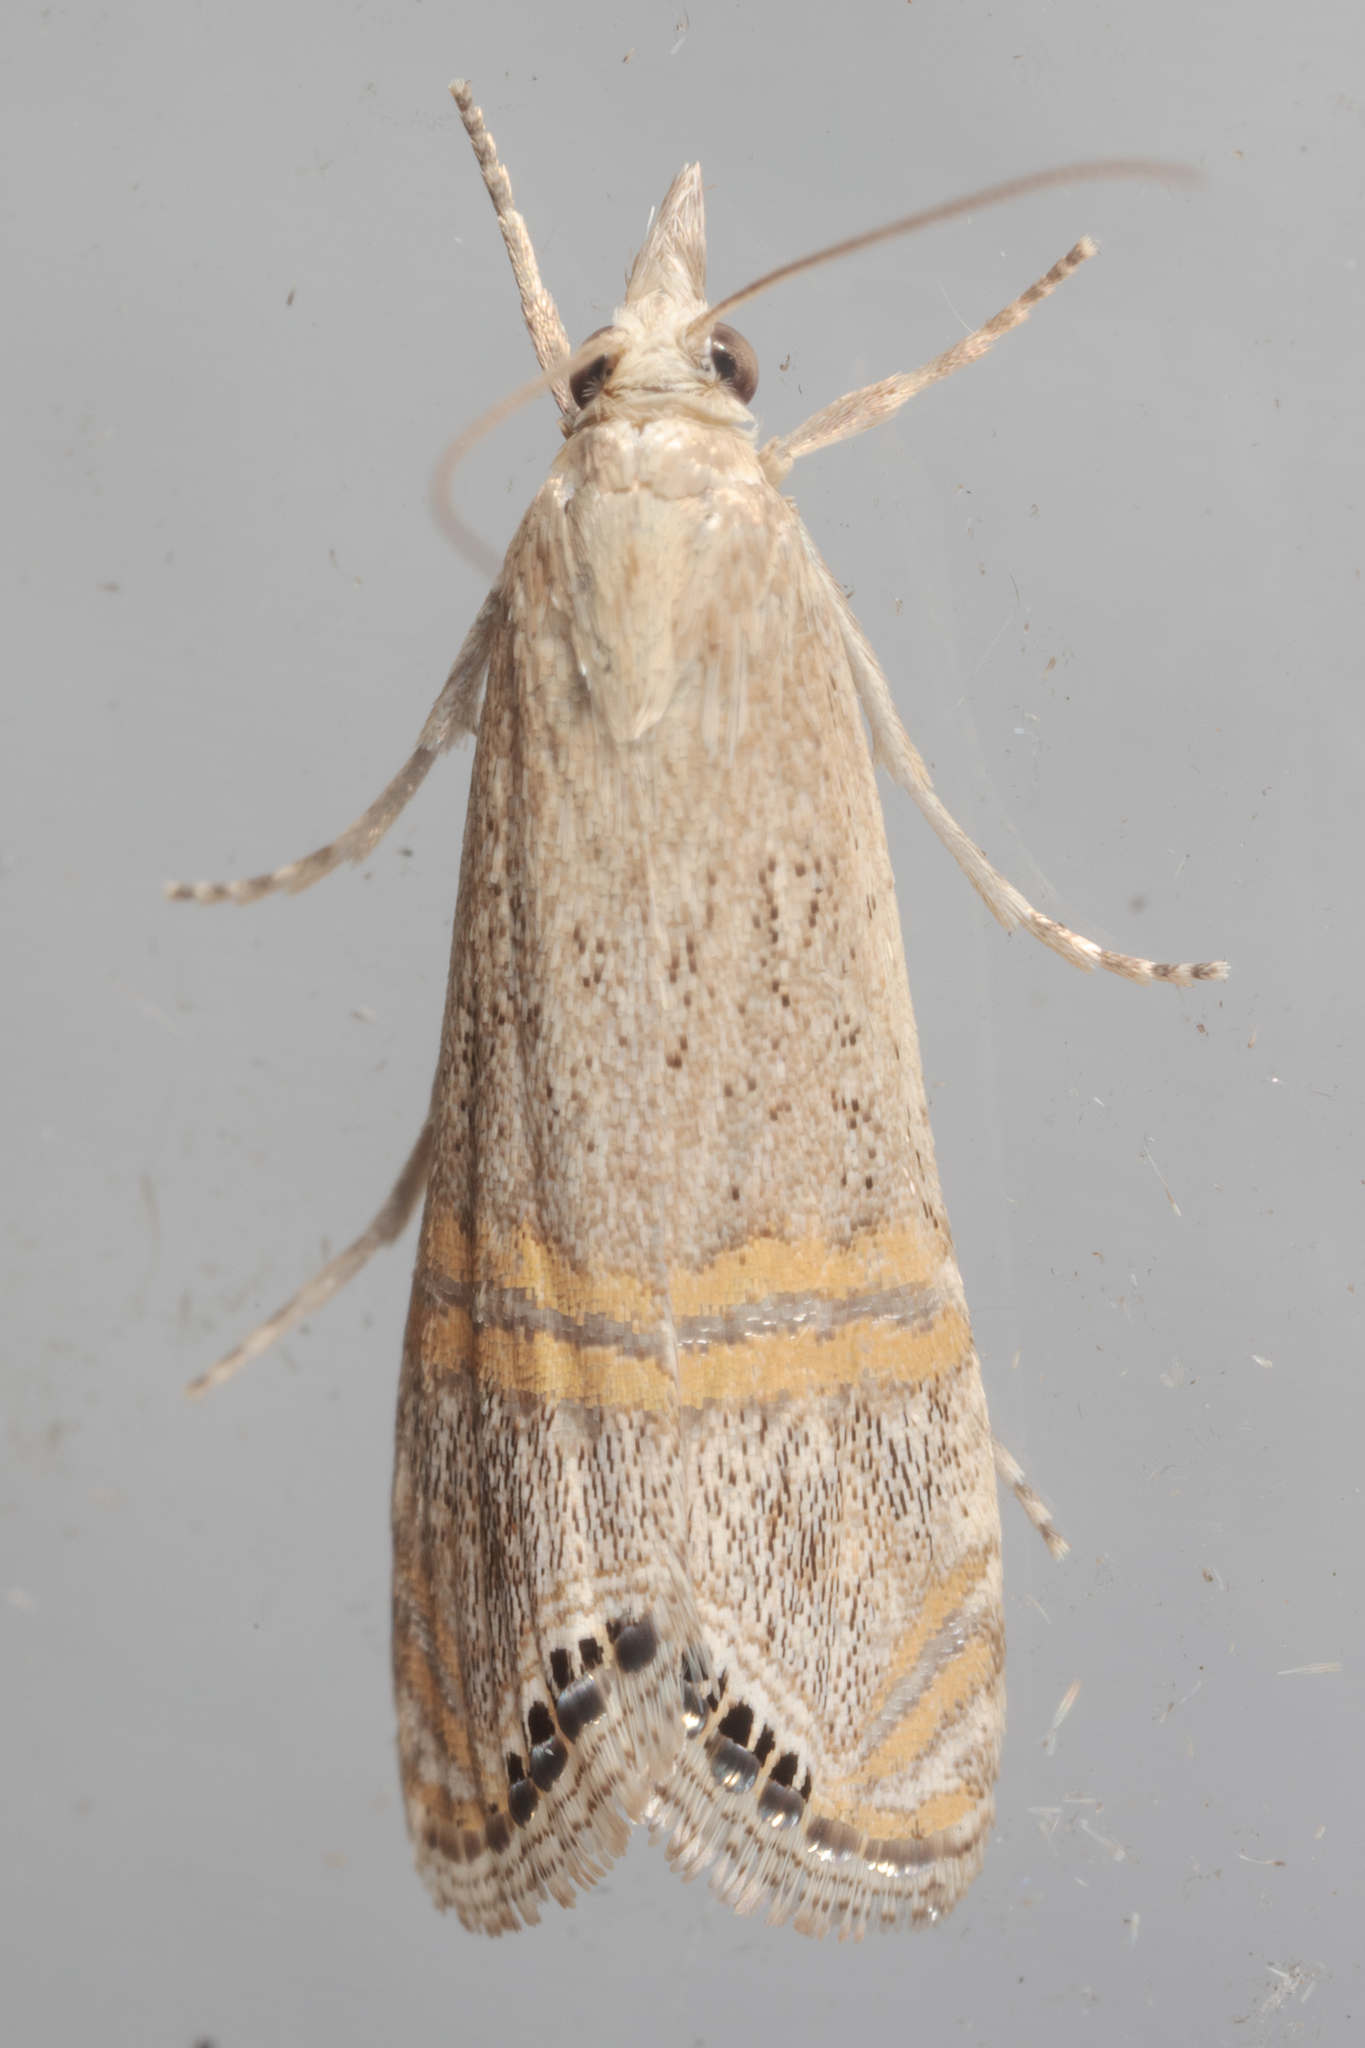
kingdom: Animalia
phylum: Arthropoda
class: Insecta
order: Lepidoptera
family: Crambidae
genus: Euchromius
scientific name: Euchromius ocellea
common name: Necklace veneer moth
